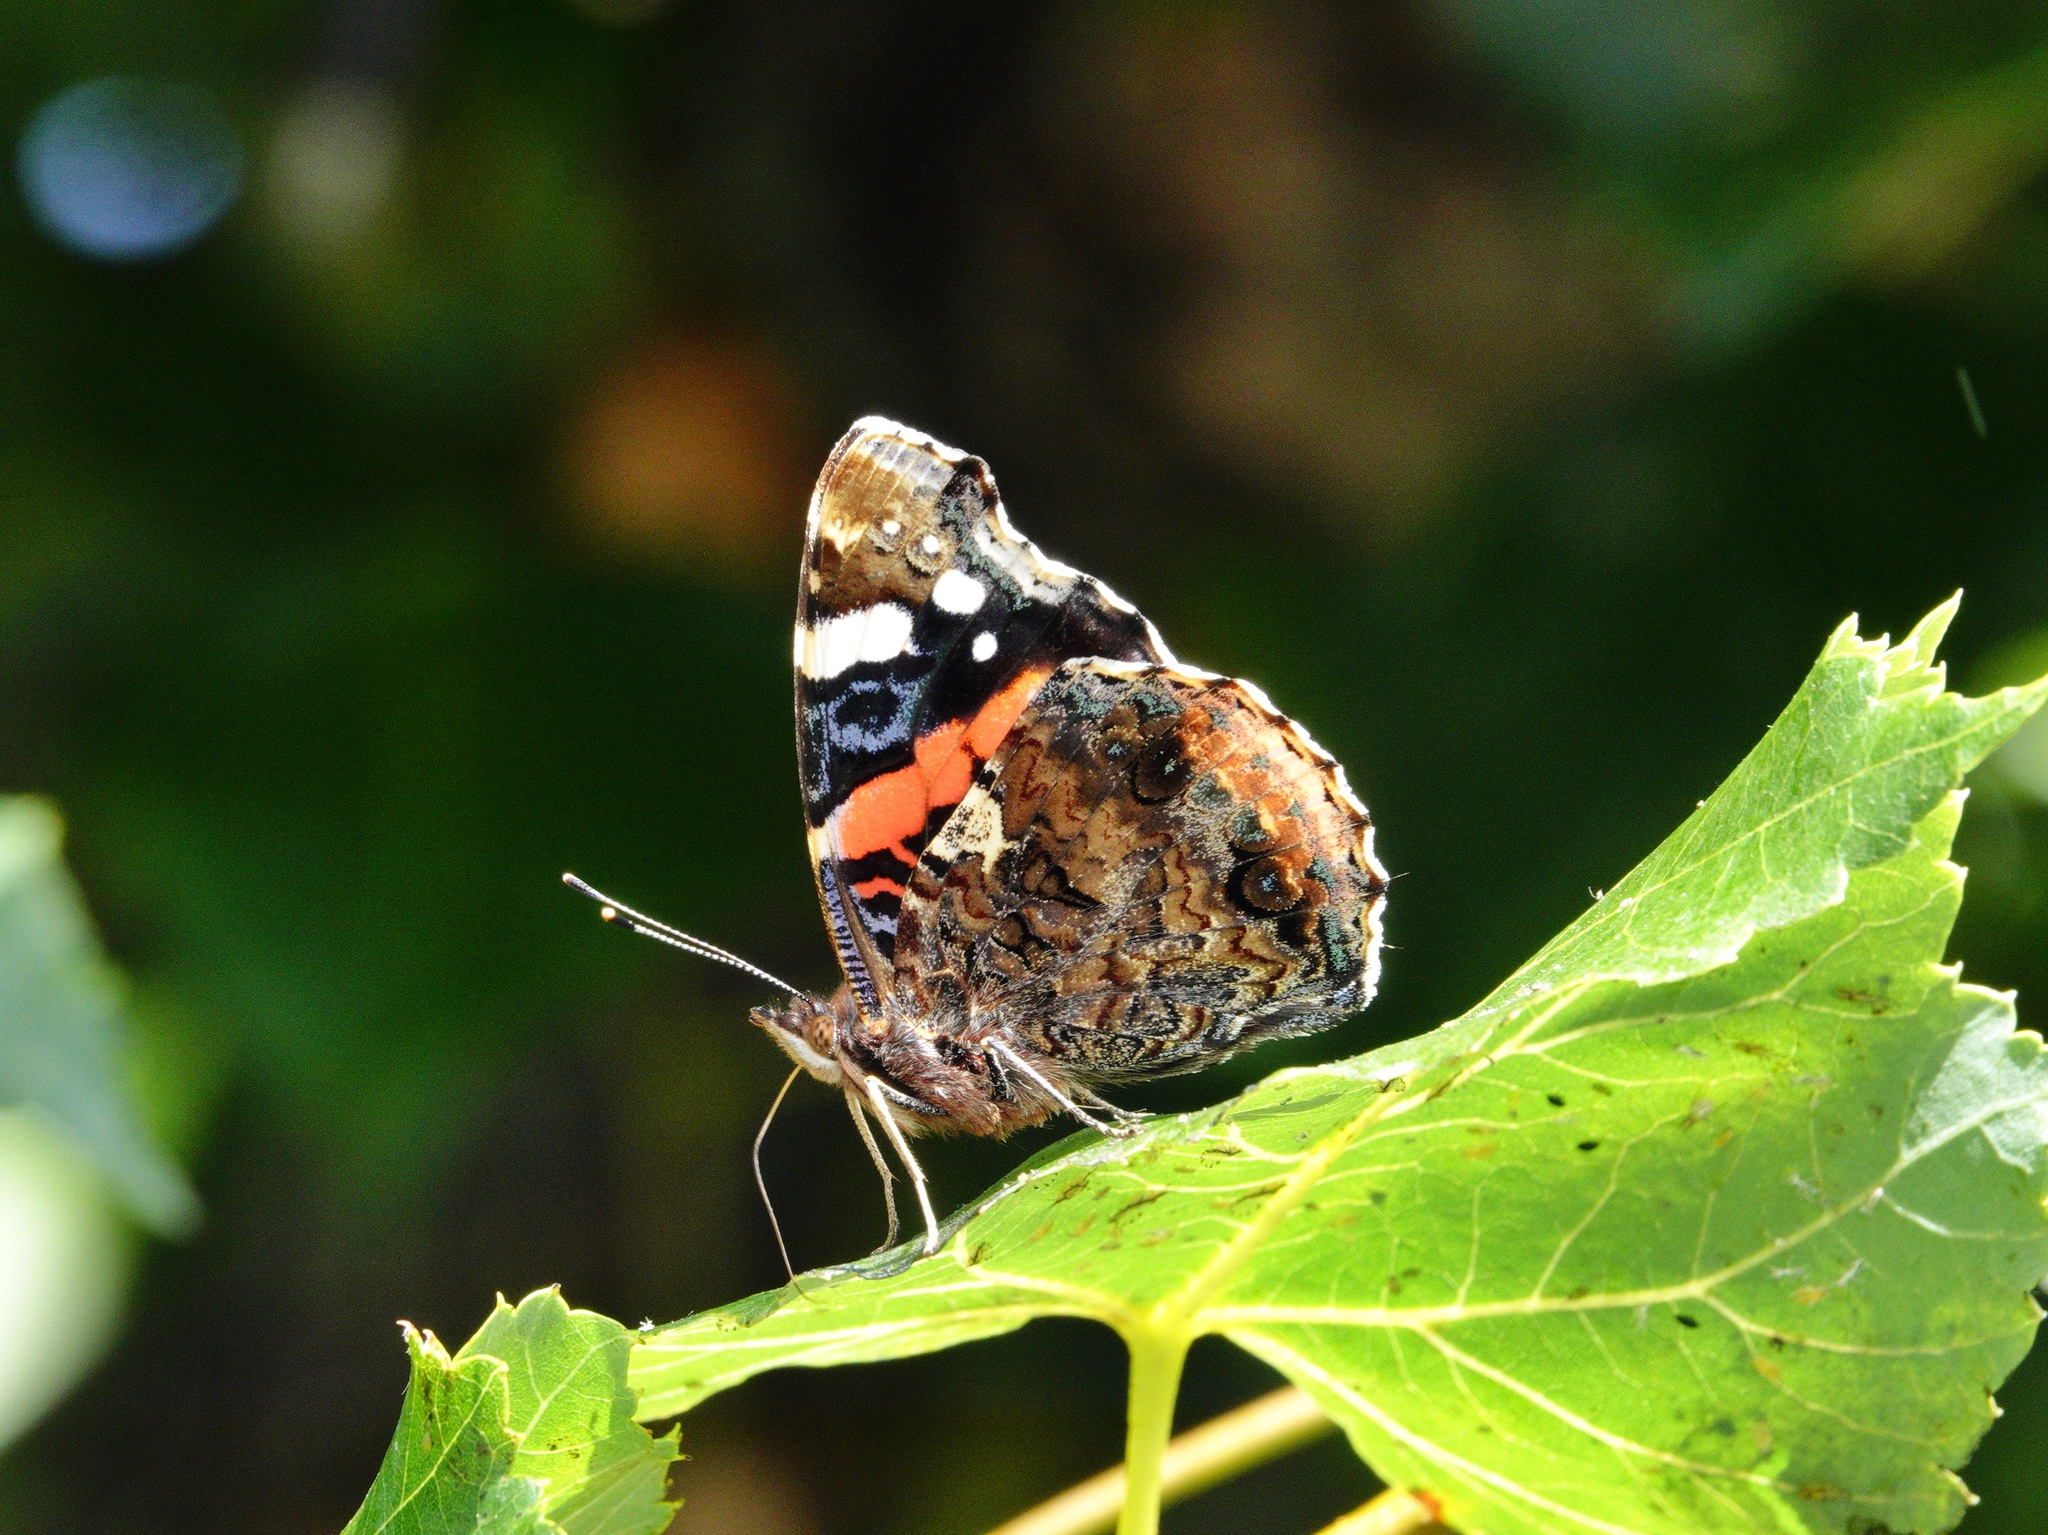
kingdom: Animalia
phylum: Arthropoda
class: Insecta
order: Lepidoptera
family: Nymphalidae
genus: Vanessa
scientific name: Vanessa atalanta
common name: Red admiral
